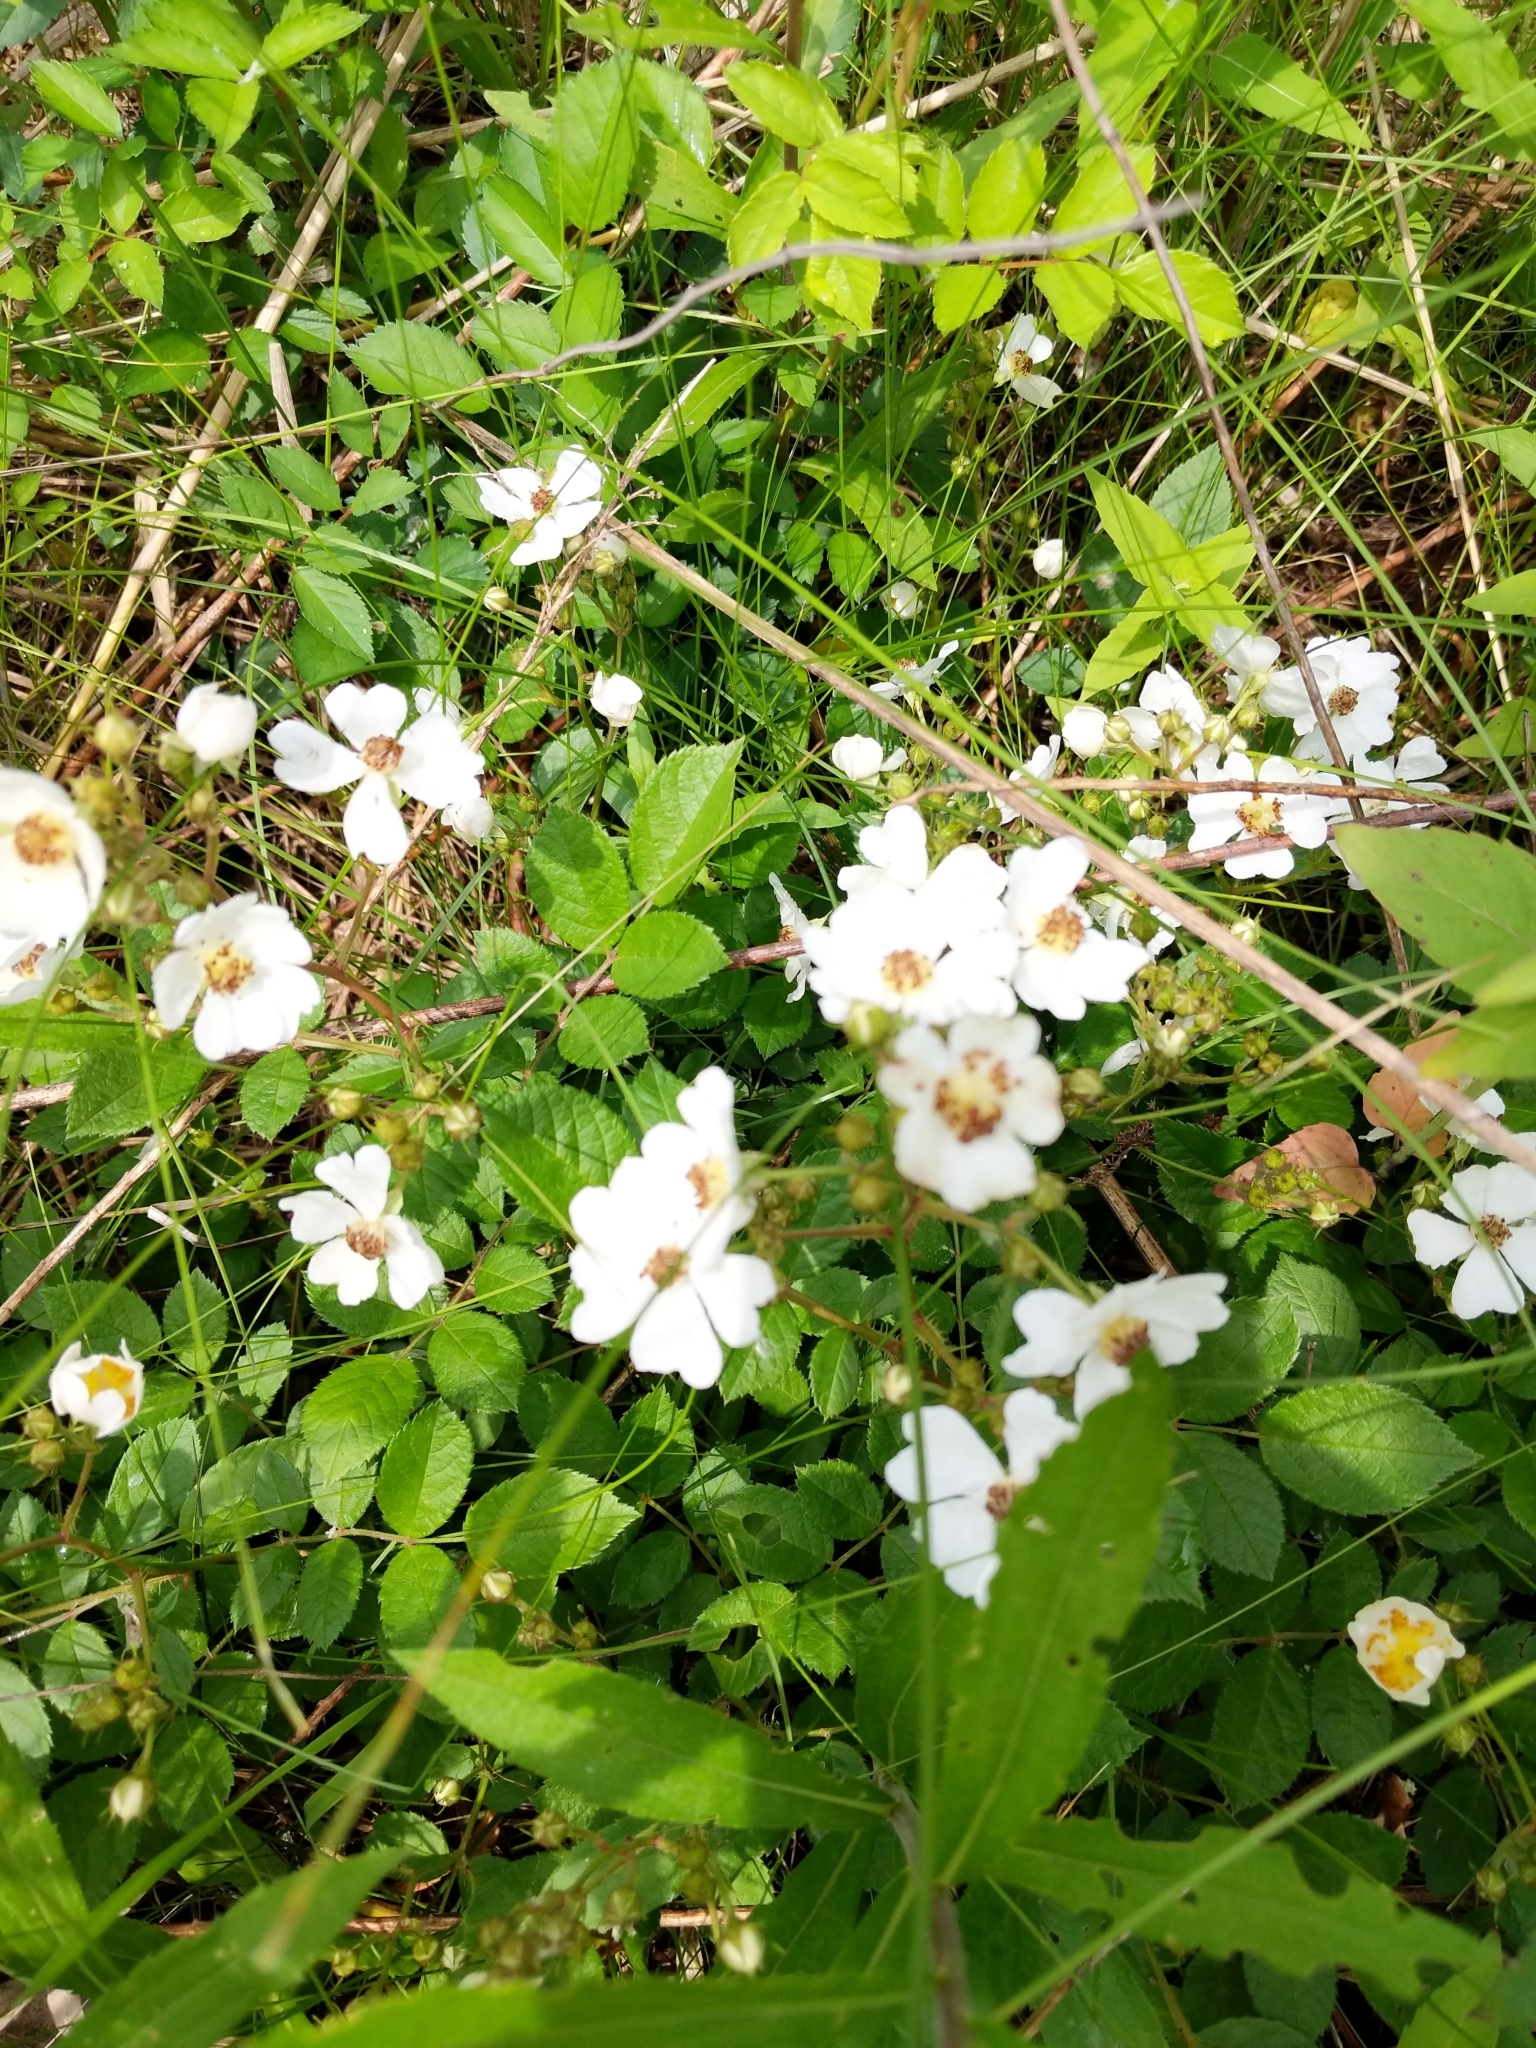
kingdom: Plantae
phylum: Tracheophyta
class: Magnoliopsida
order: Rosales
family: Rosaceae
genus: Rosa
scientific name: Rosa multiflora
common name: Multiflora rose
